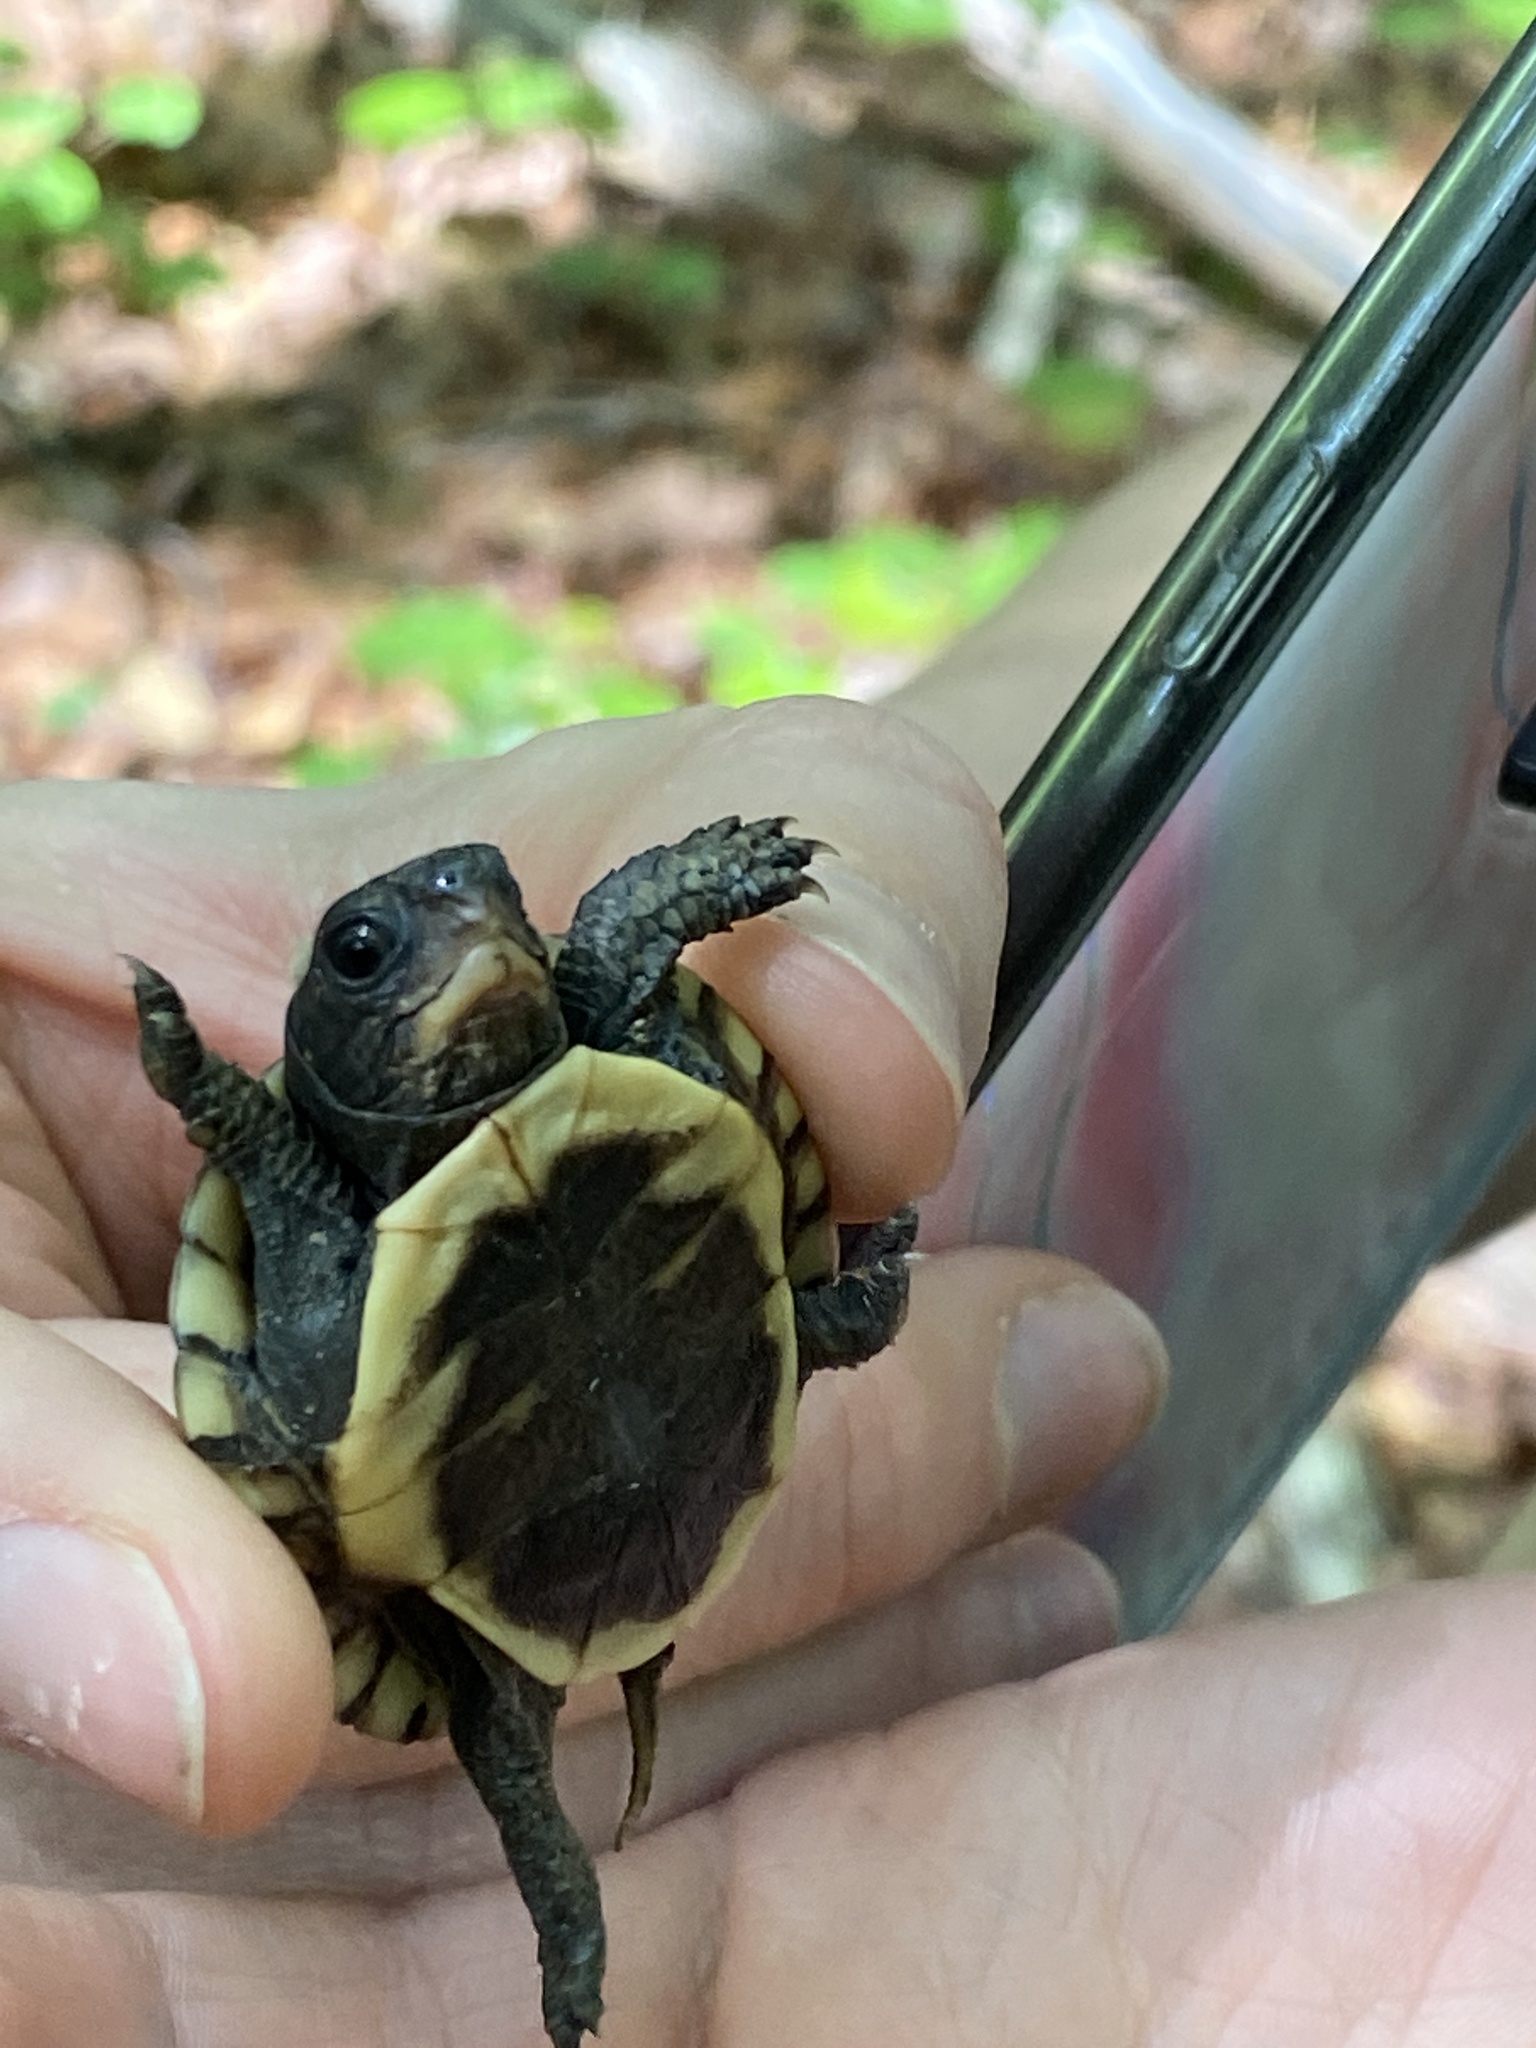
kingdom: Animalia
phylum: Chordata
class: Testudines
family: Emydidae
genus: Terrapene
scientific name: Terrapene carolina
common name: Common box turtle
